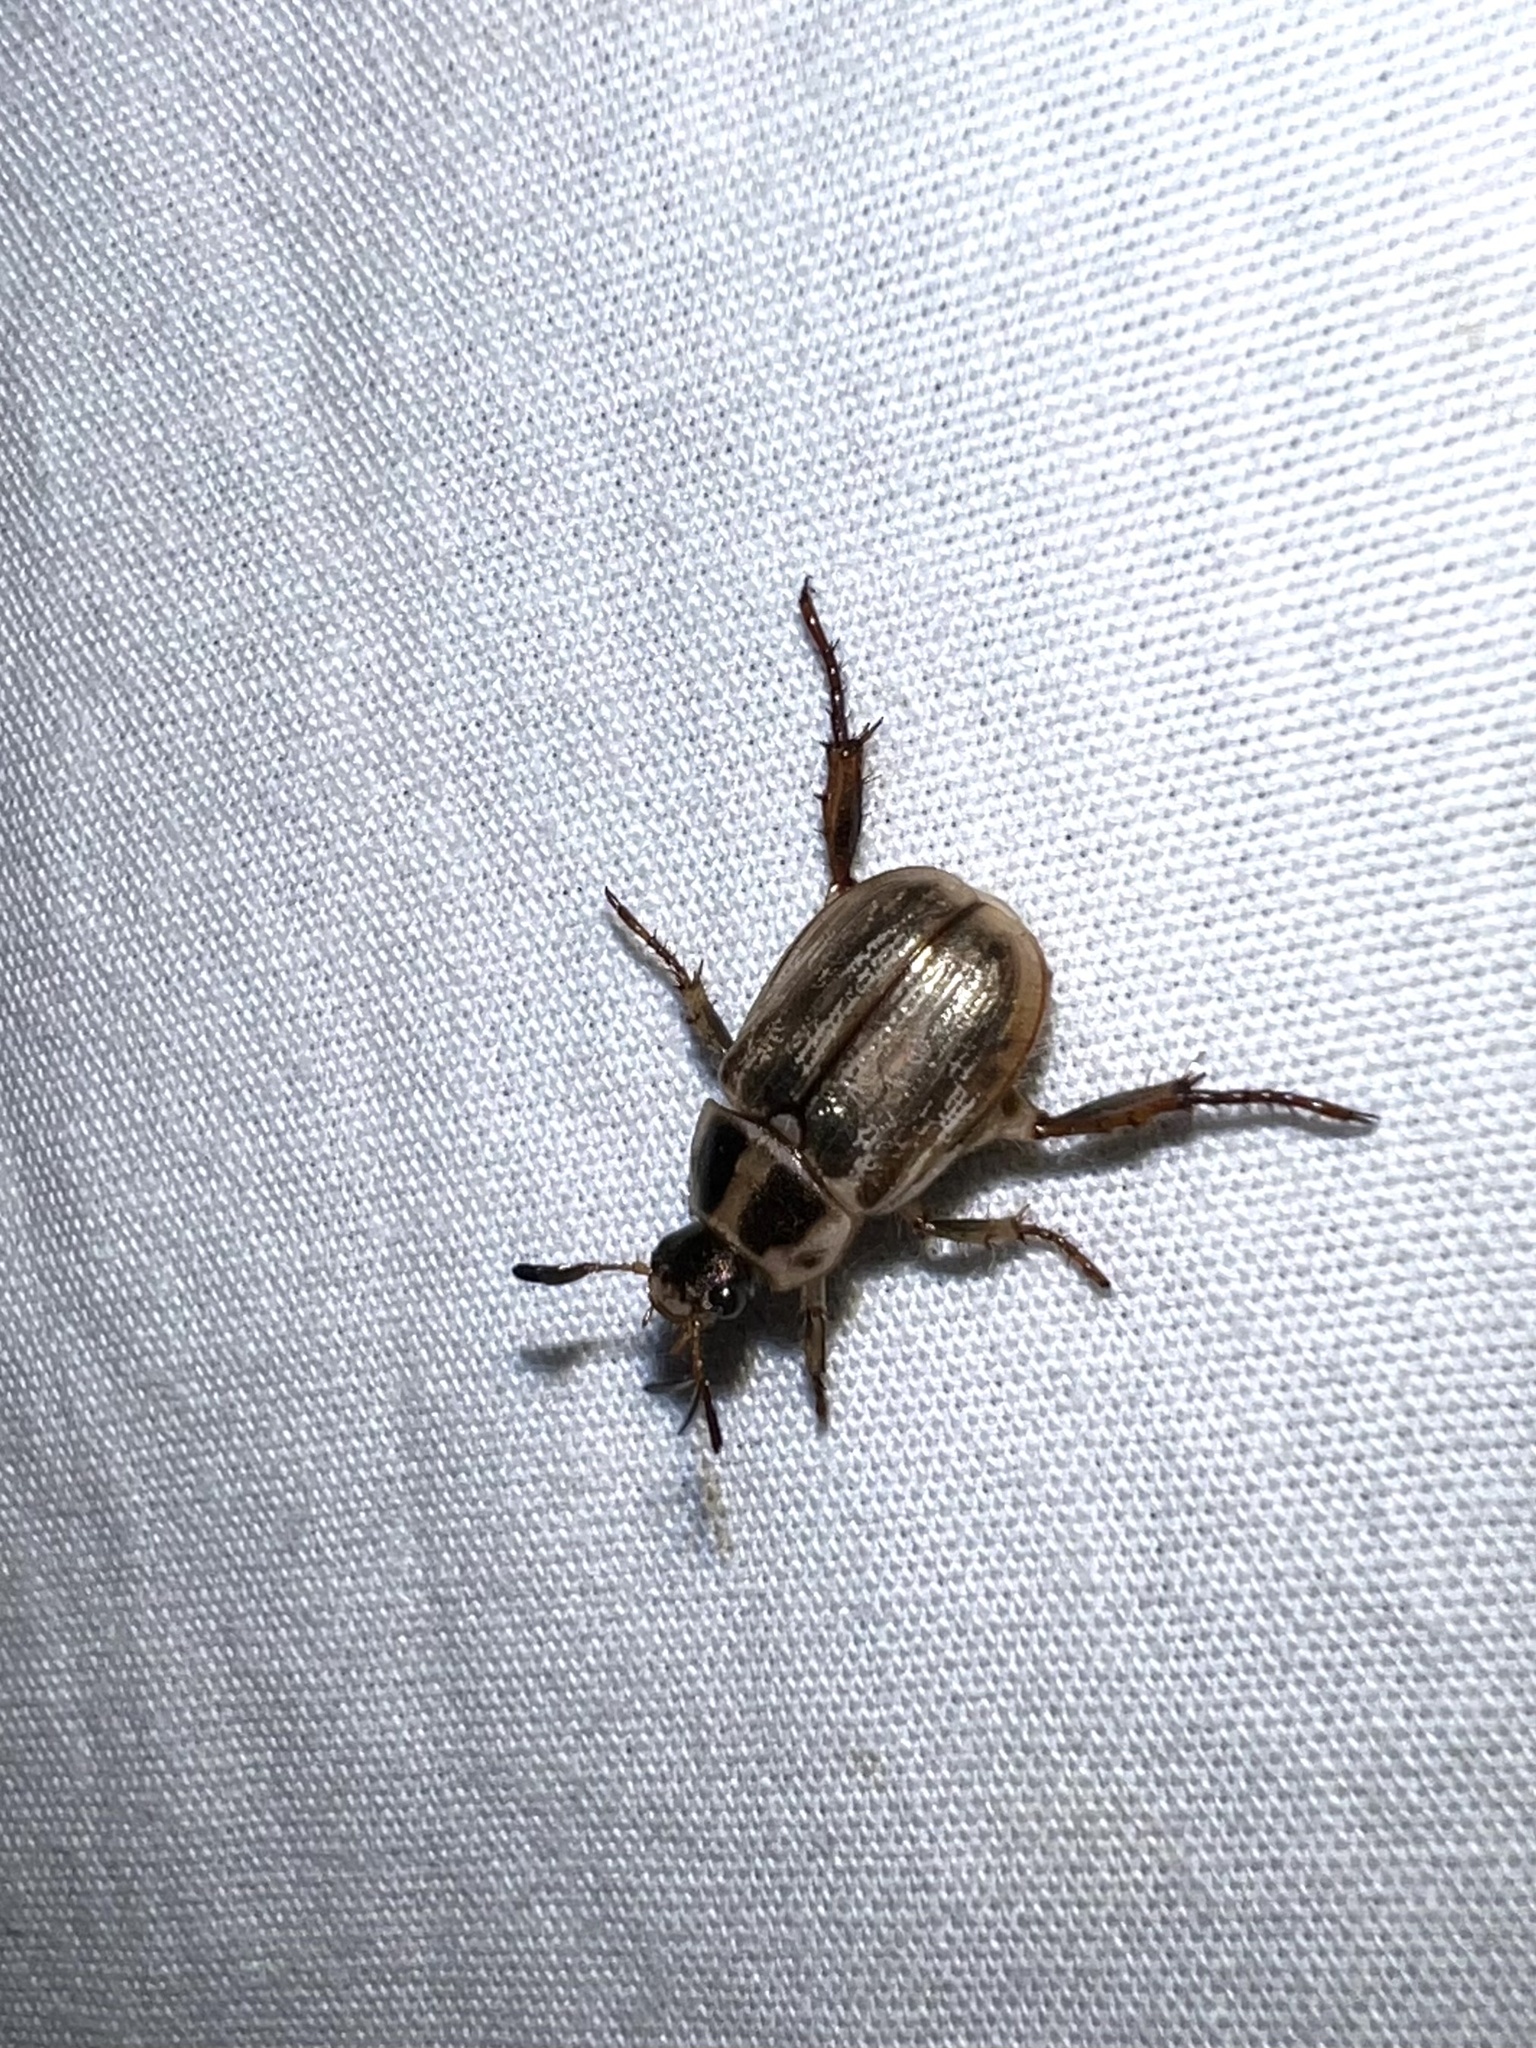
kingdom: Animalia
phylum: Arthropoda
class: Insecta
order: Coleoptera
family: Scarabaeidae
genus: Exomala
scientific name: Exomala orientalis
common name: Oriental beetle
